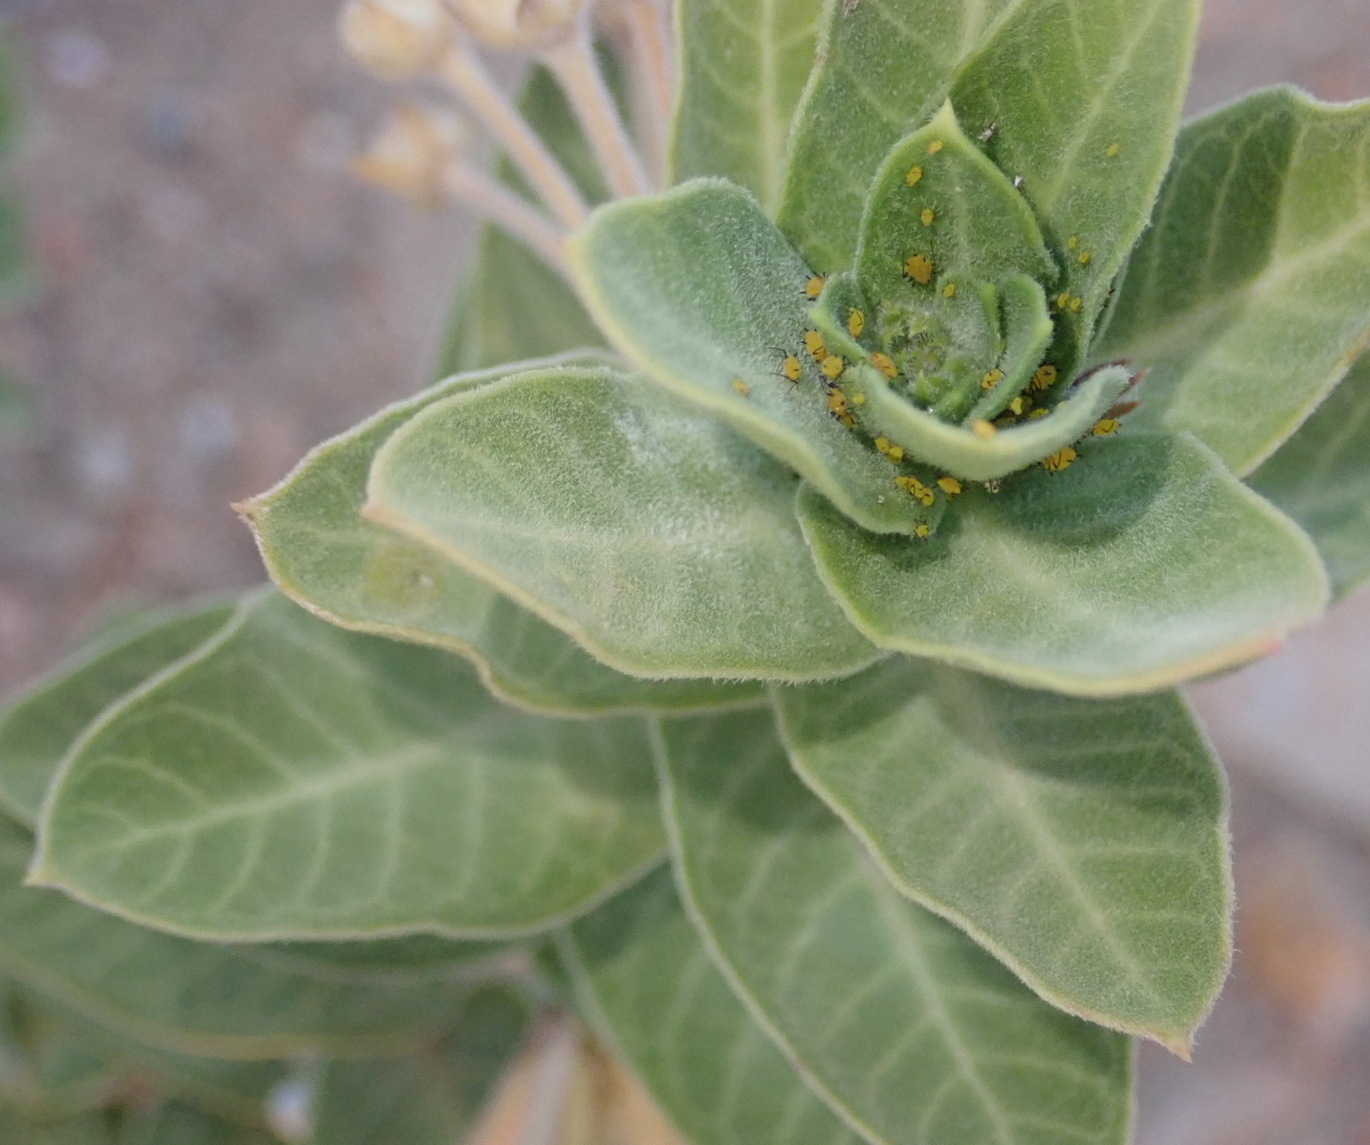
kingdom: Plantae
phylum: Tracheophyta
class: Magnoliopsida
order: Gentianales
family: Apocynaceae
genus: Gomphocarpus
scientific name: Gomphocarpus cancellatus
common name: Wild cotton
